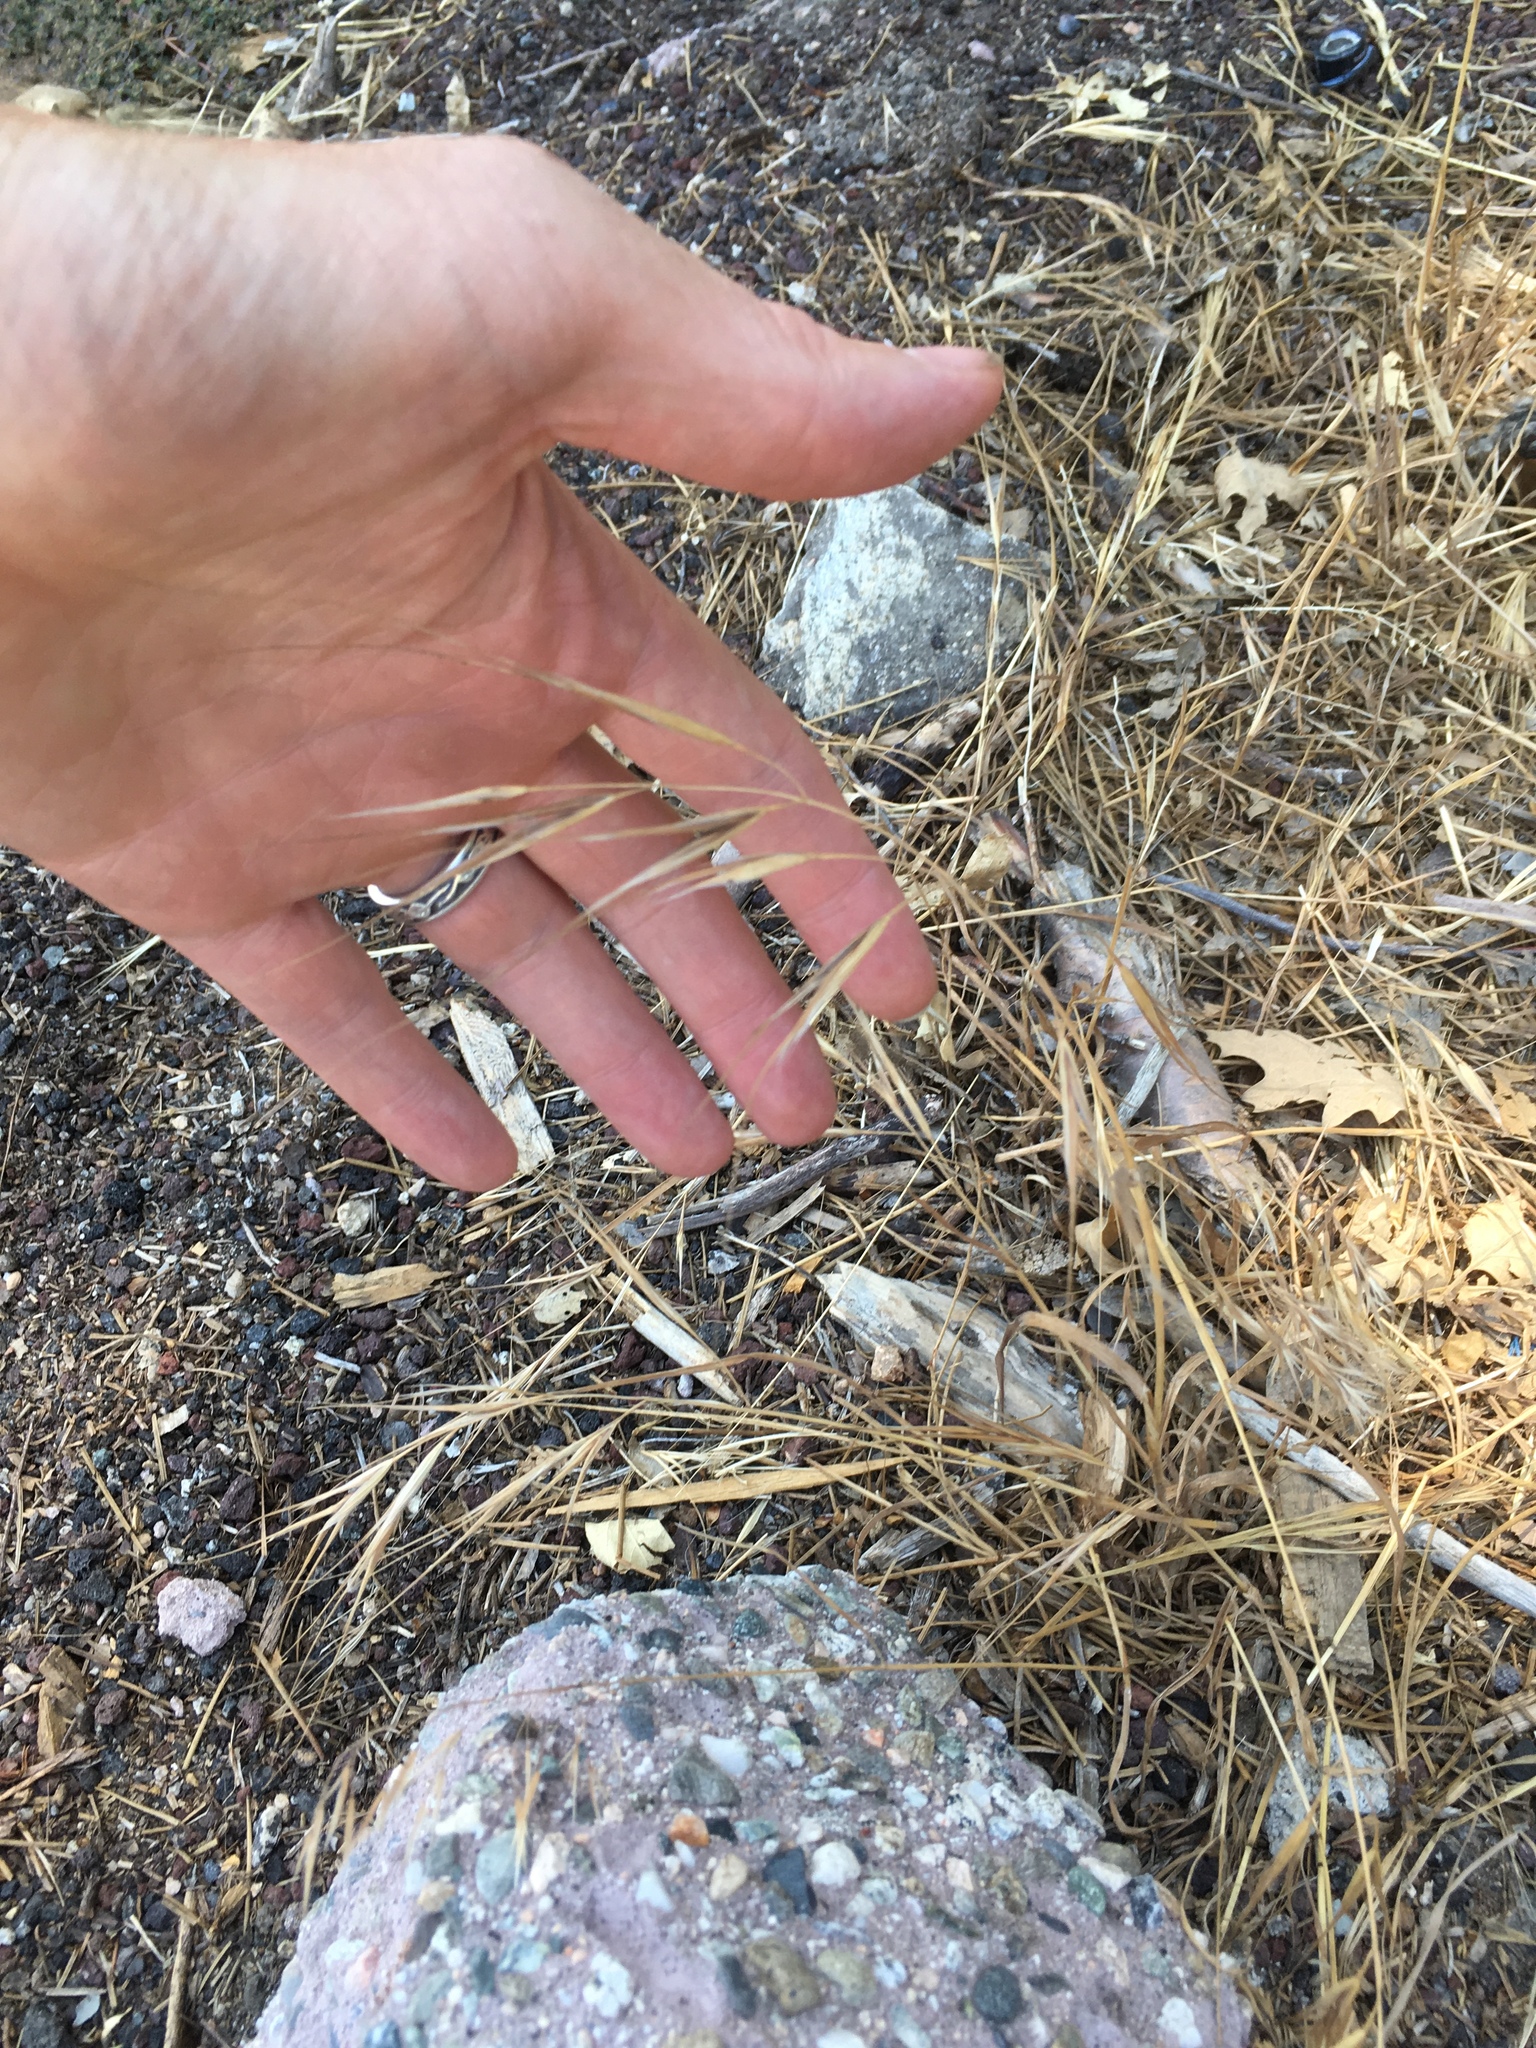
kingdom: Plantae
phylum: Tracheophyta
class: Liliopsida
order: Poales
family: Poaceae
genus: Bromus
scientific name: Bromus diandrus
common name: Ripgut brome
